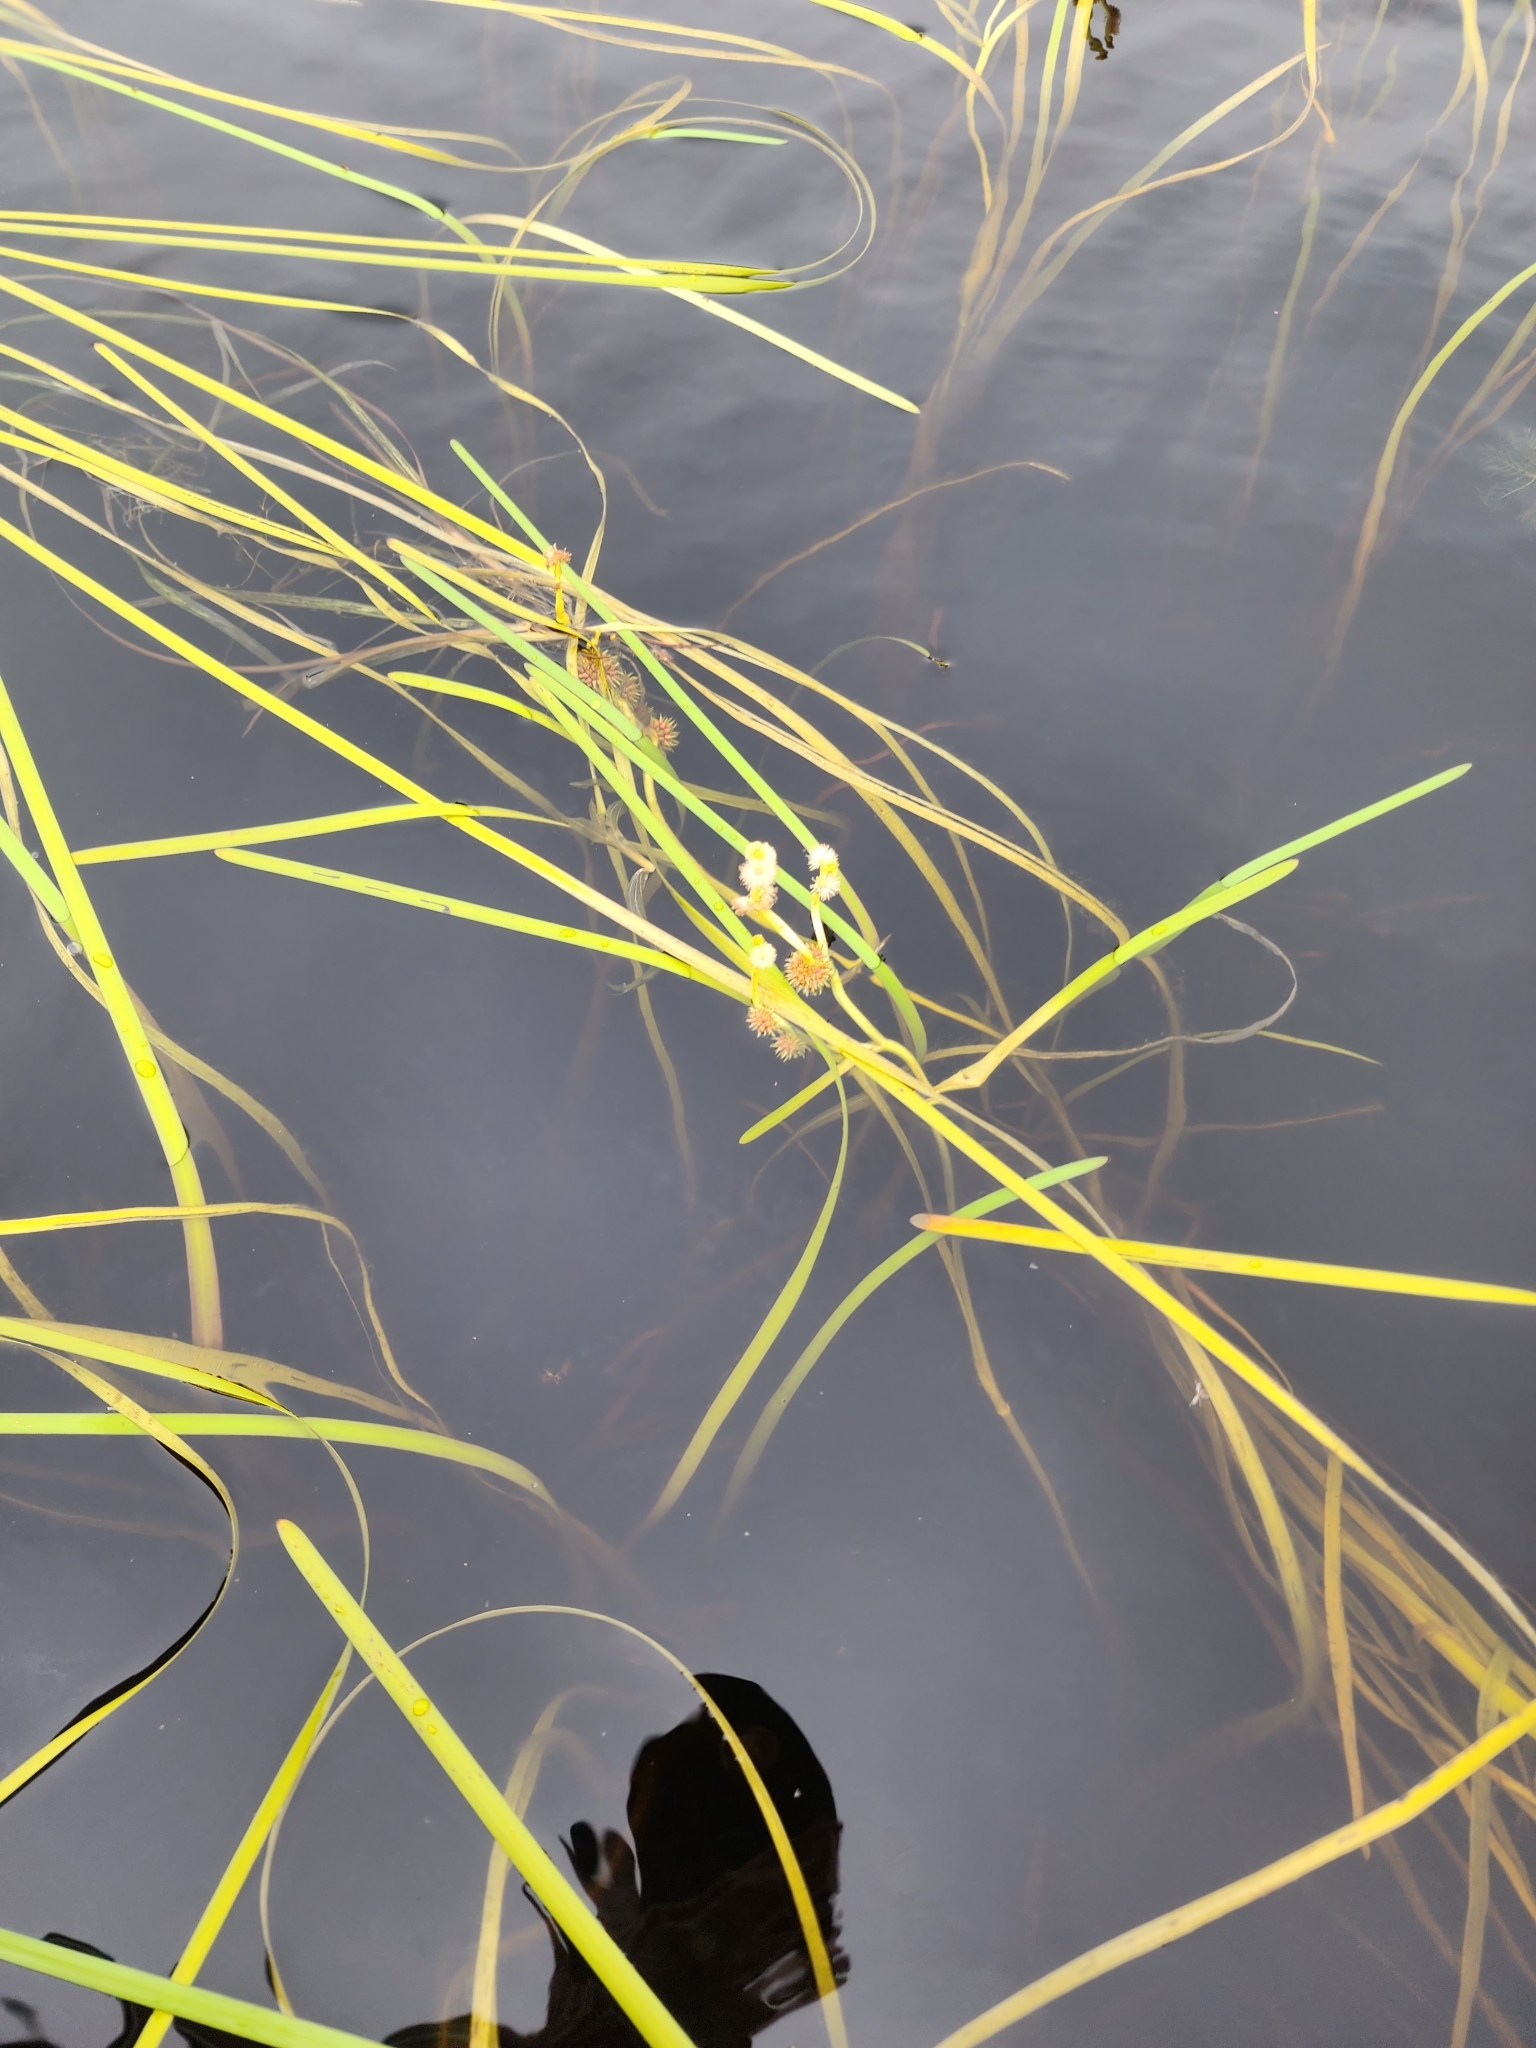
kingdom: Plantae
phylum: Tracheophyta
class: Liliopsida
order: Poales
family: Typhaceae
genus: Sparganium
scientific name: Sparganium fluctuans
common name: Floating burreed
